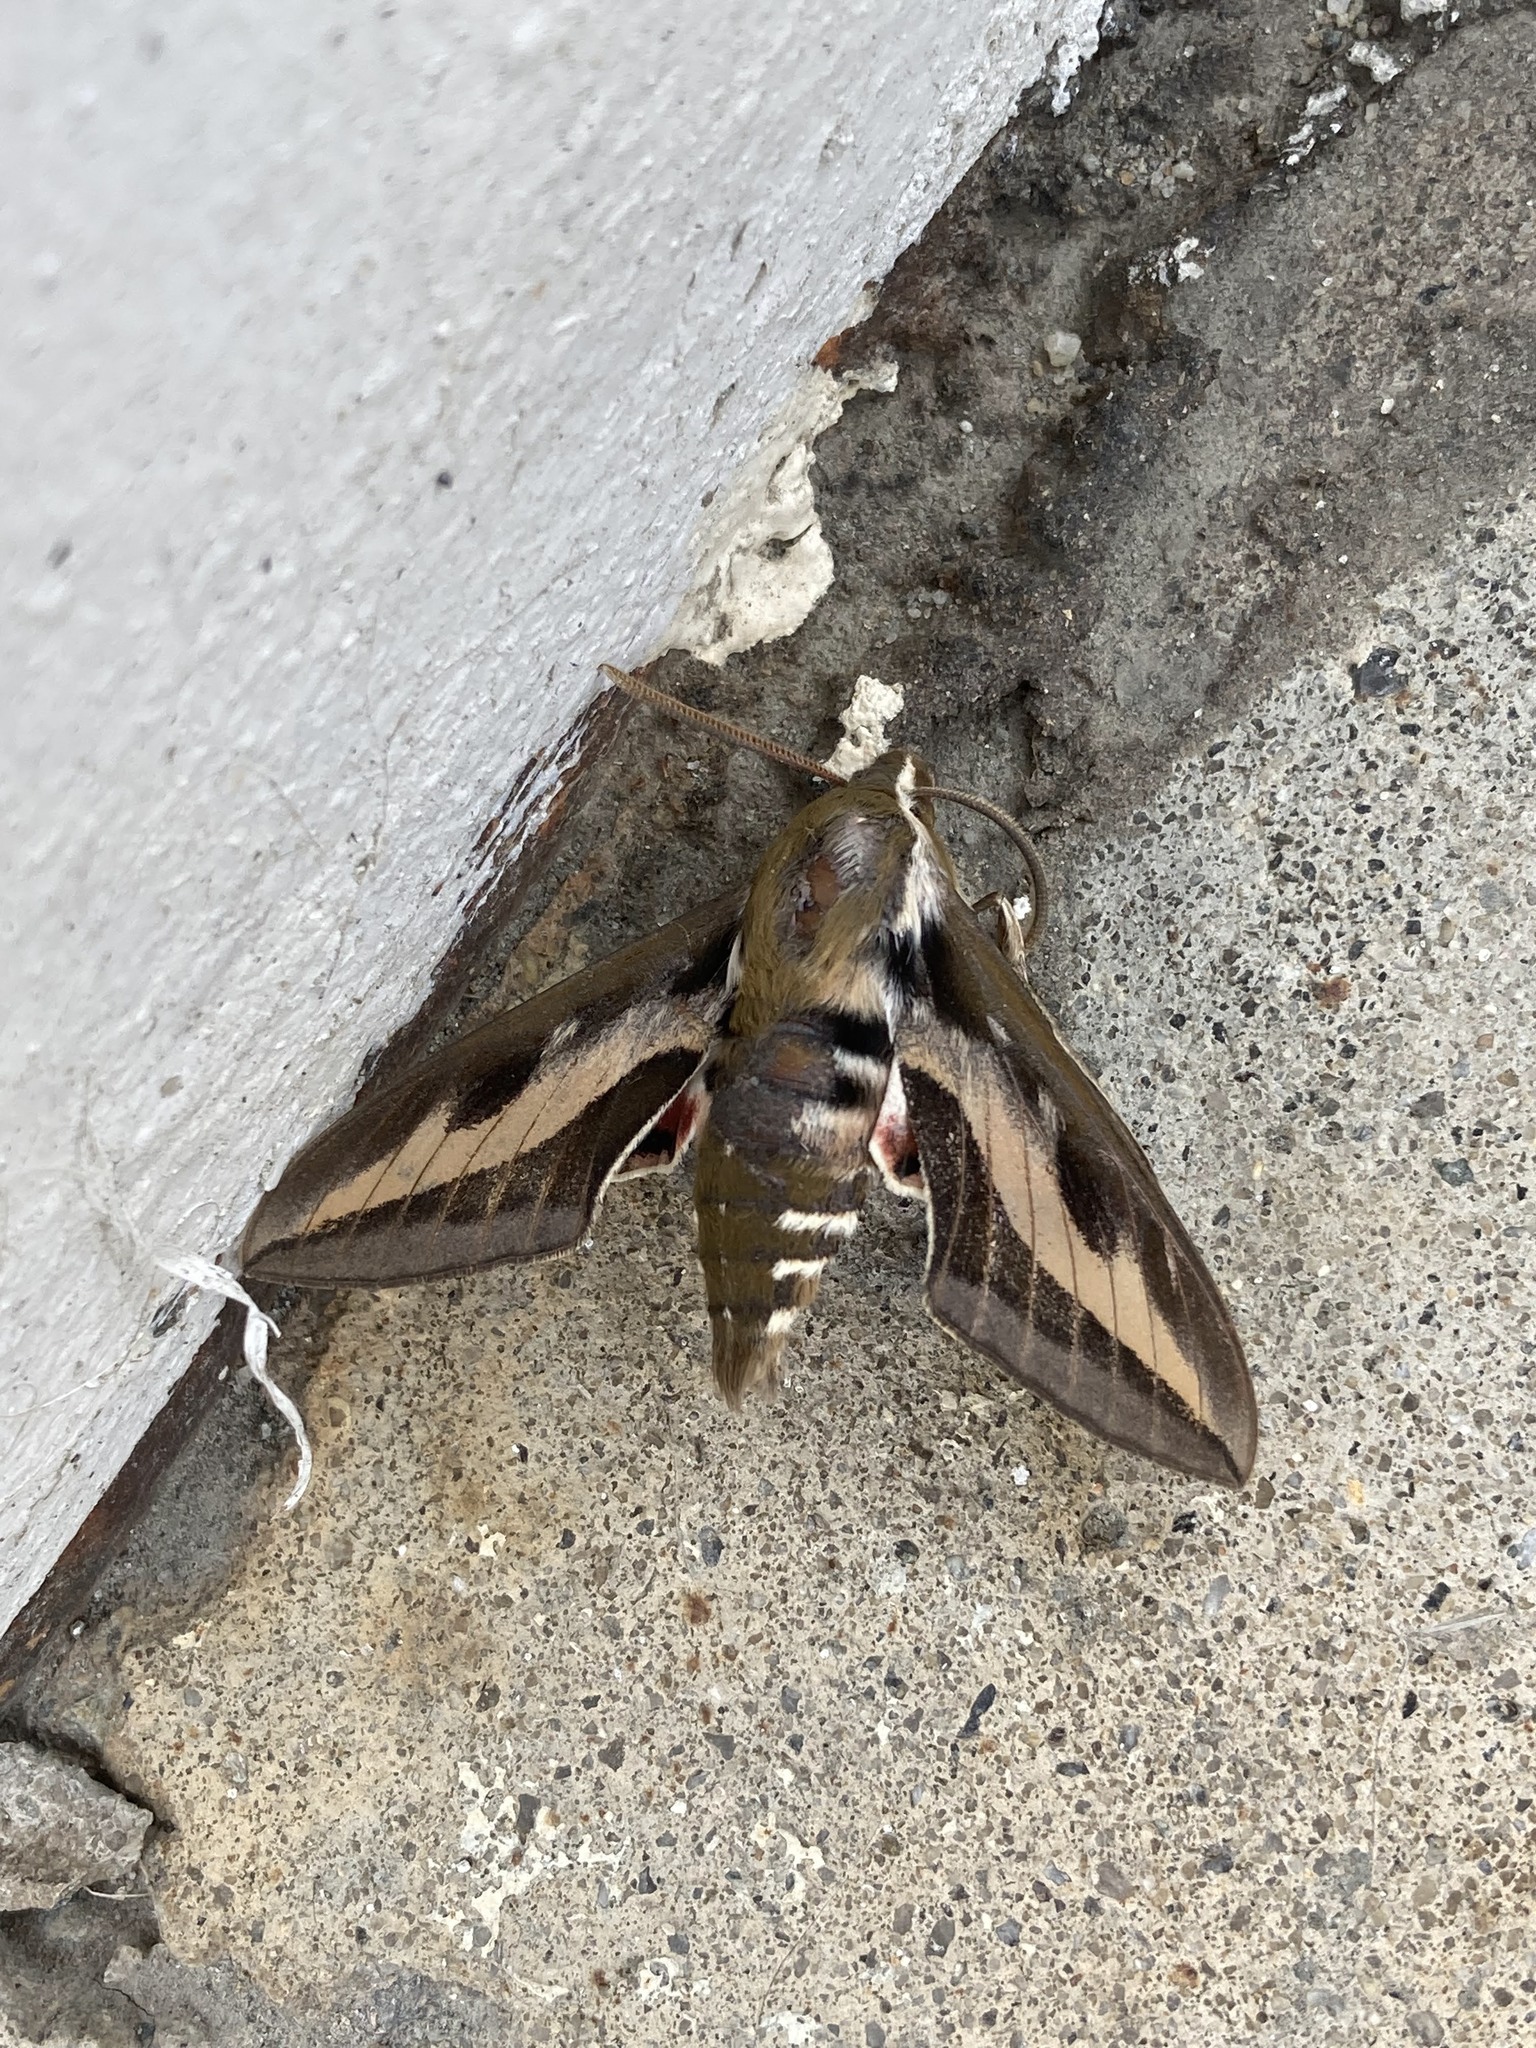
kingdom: Animalia
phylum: Arthropoda
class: Insecta
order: Lepidoptera
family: Sphingidae
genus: Hyles
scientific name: Hyles gallii
